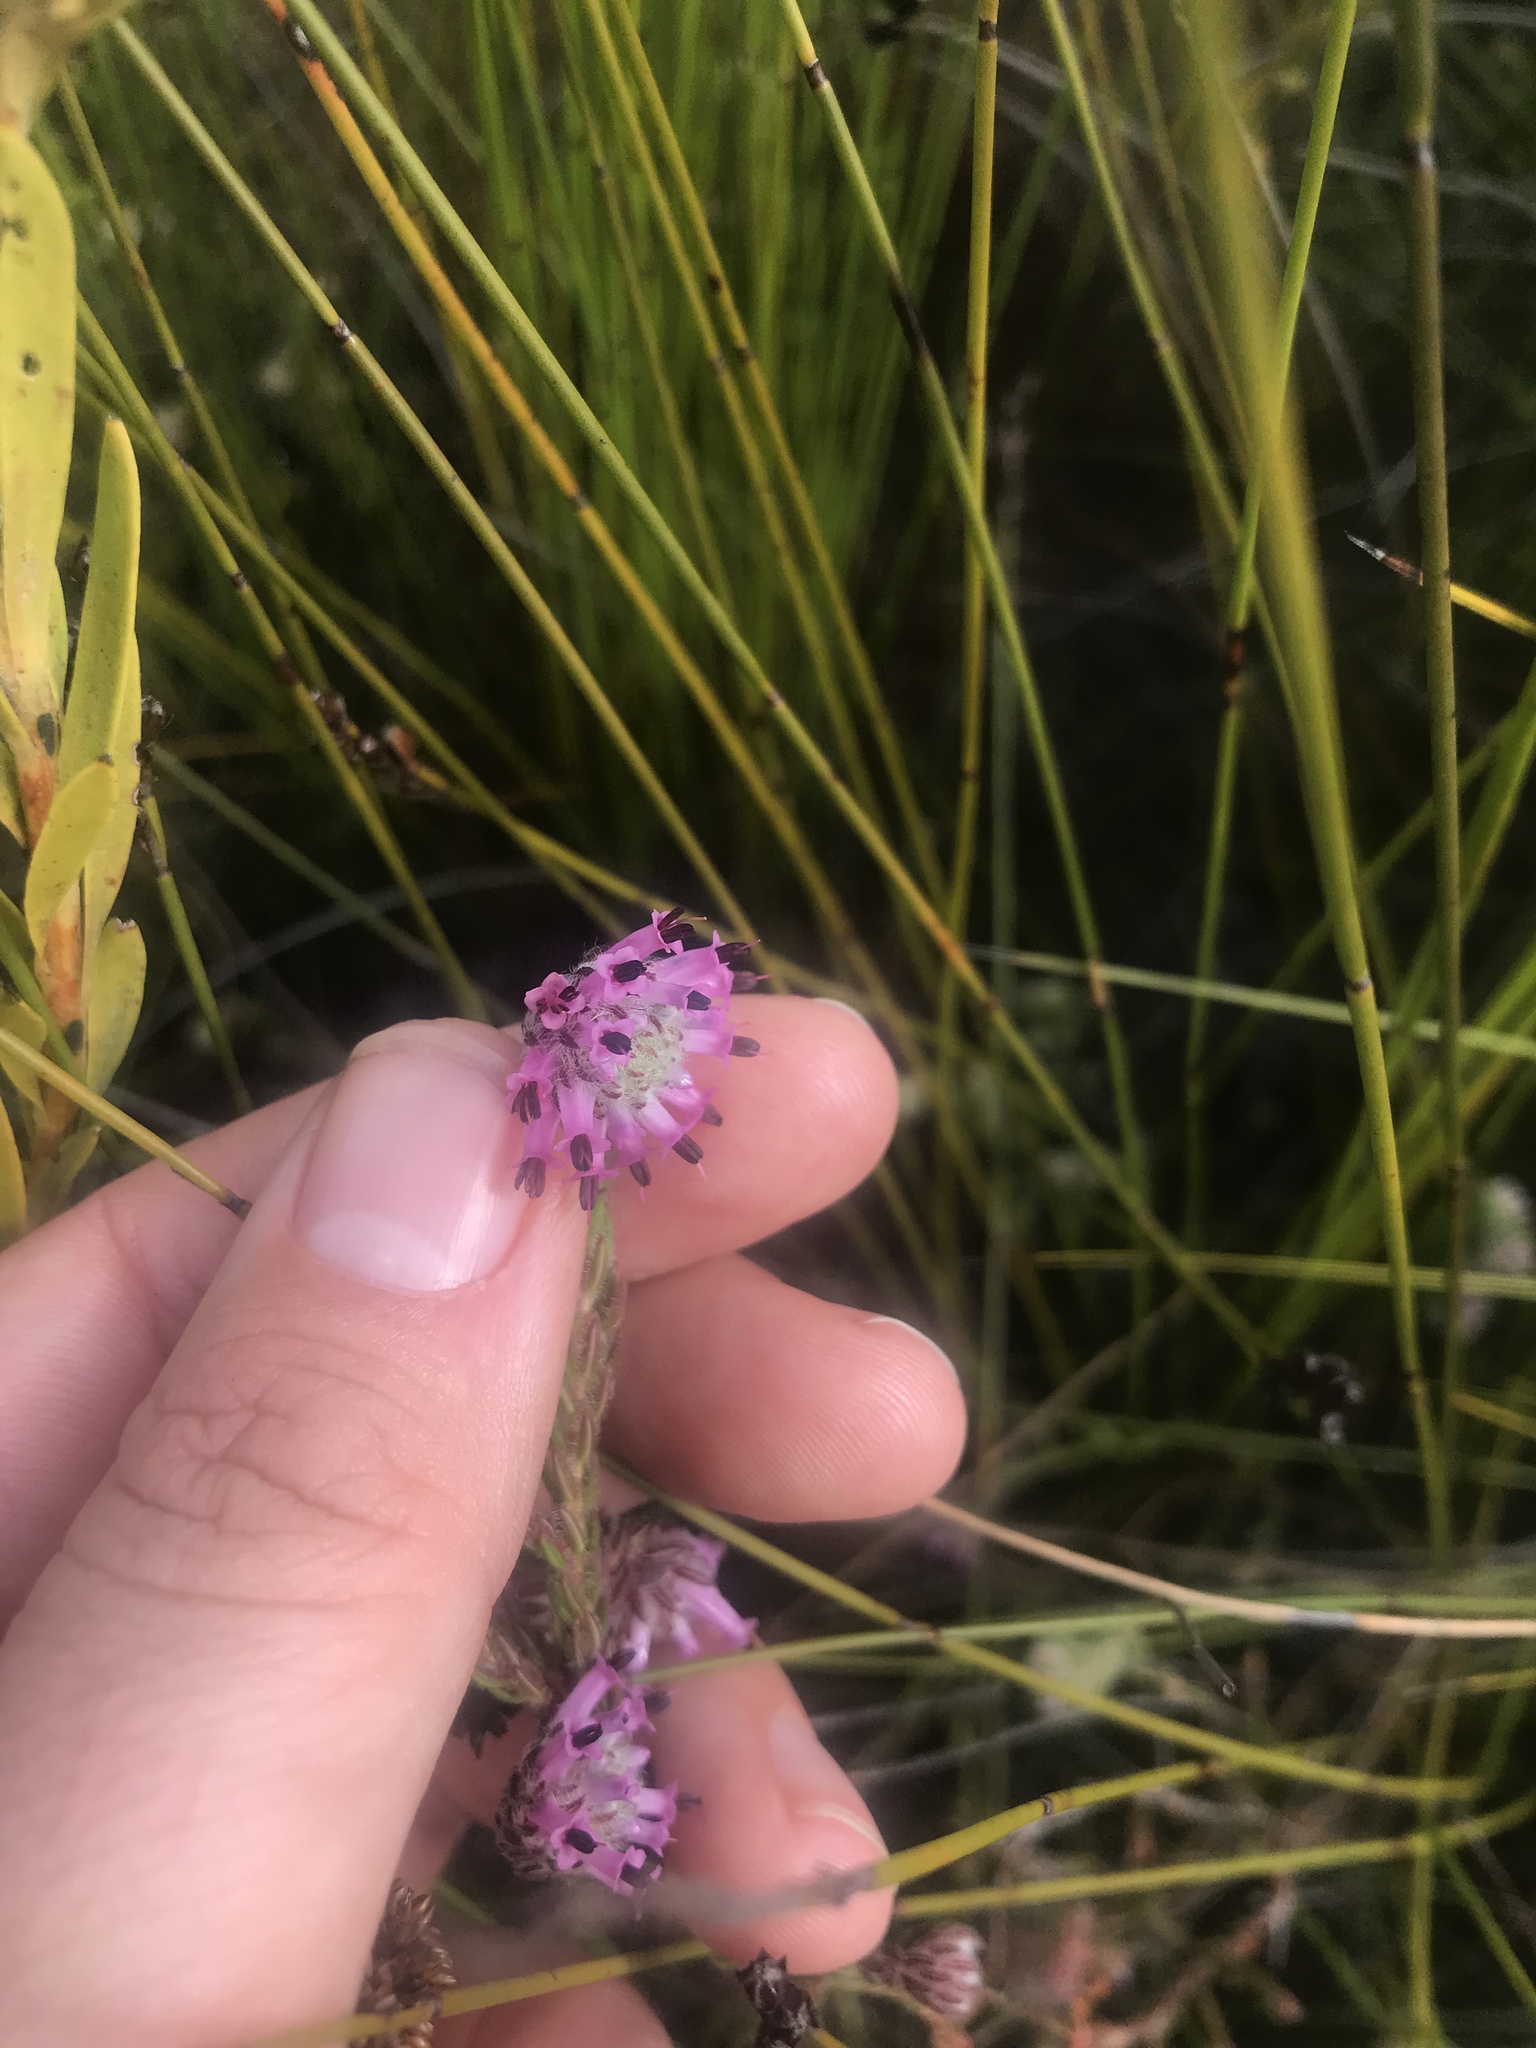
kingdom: Plantae
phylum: Tracheophyta
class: Magnoliopsida
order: Ericales
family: Ericaceae
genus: Erica
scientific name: Erica barbigeroides
